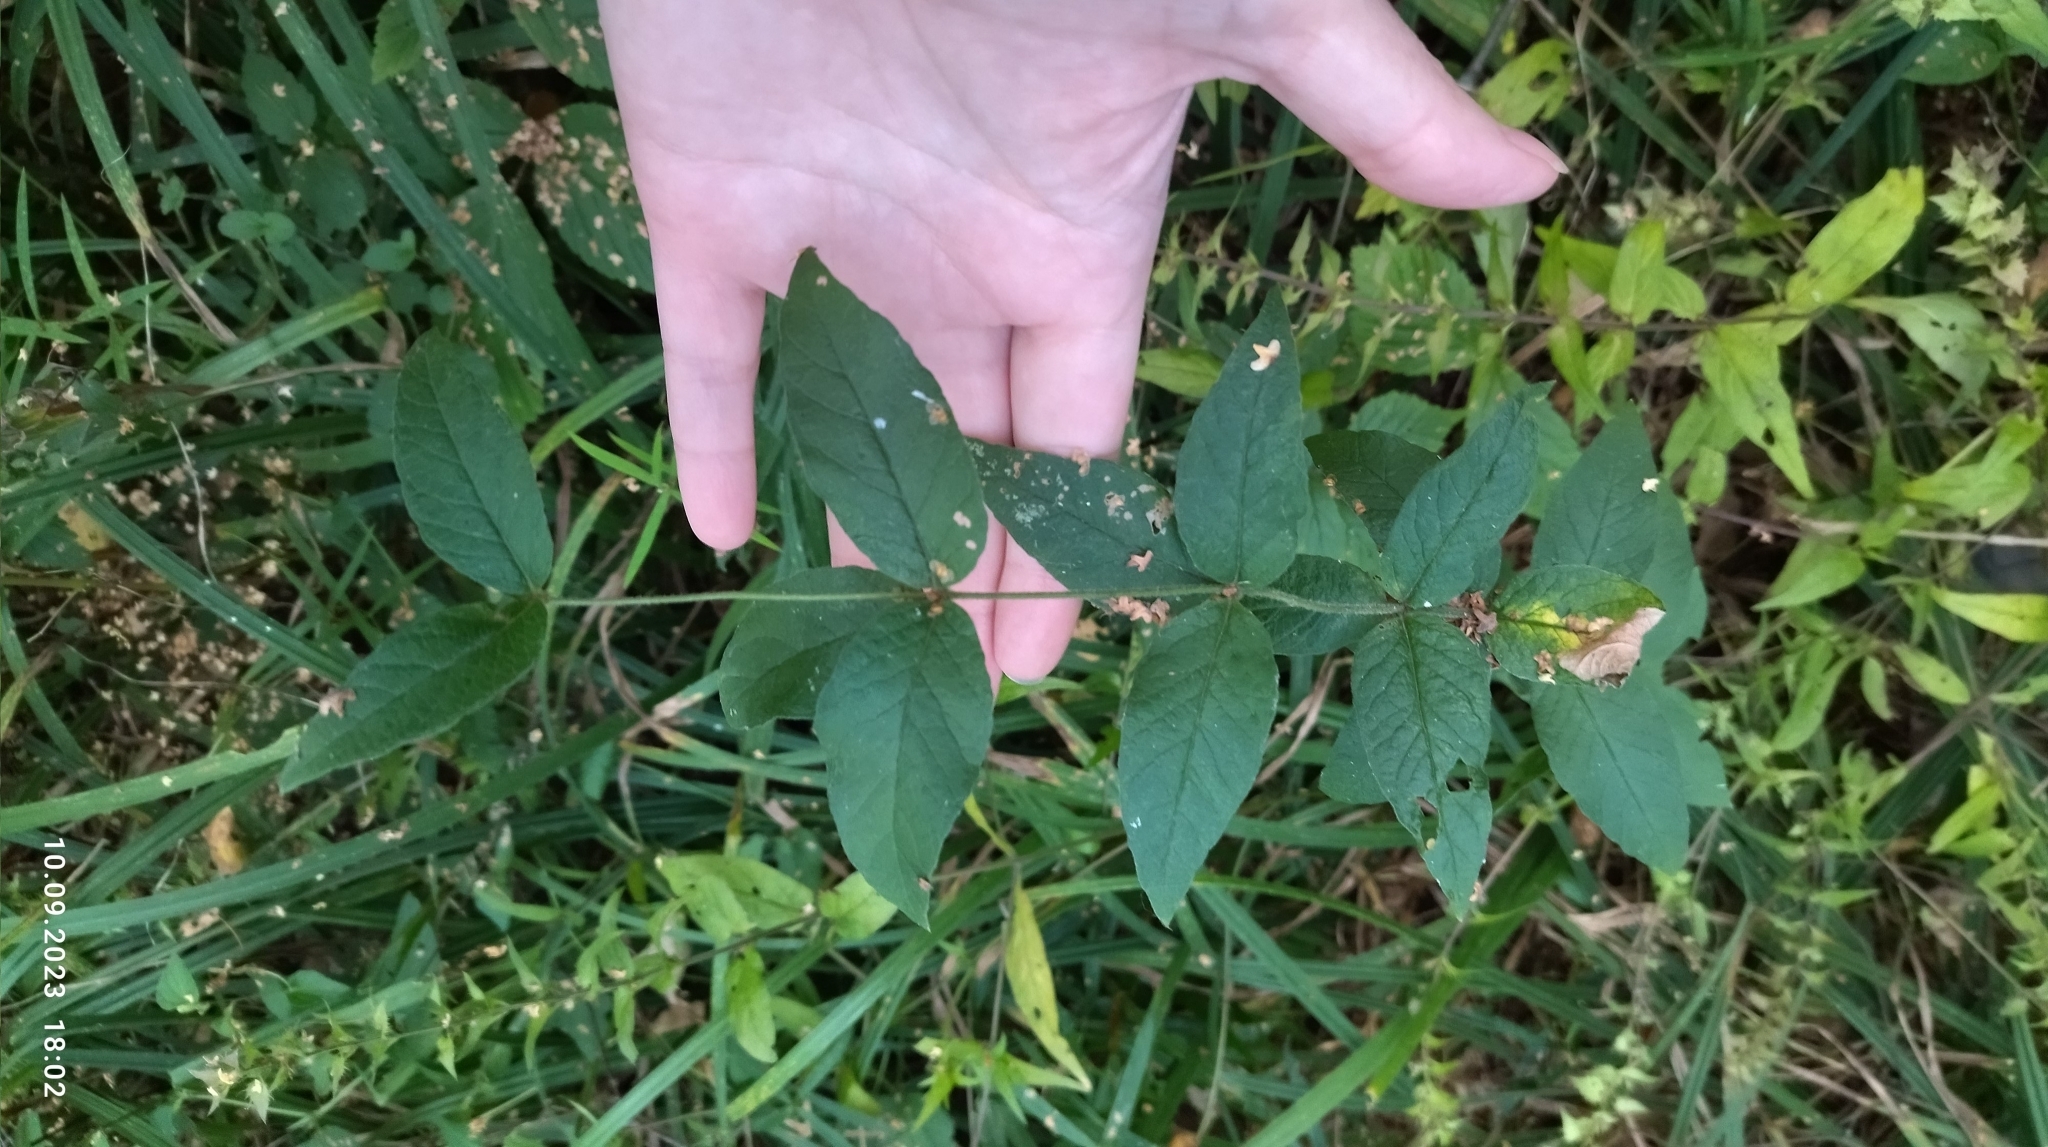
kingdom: Plantae
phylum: Tracheophyta
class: Magnoliopsida
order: Ericales
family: Primulaceae
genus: Lysimachia
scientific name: Lysimachia vulgaris
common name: Yellow loosestrife
